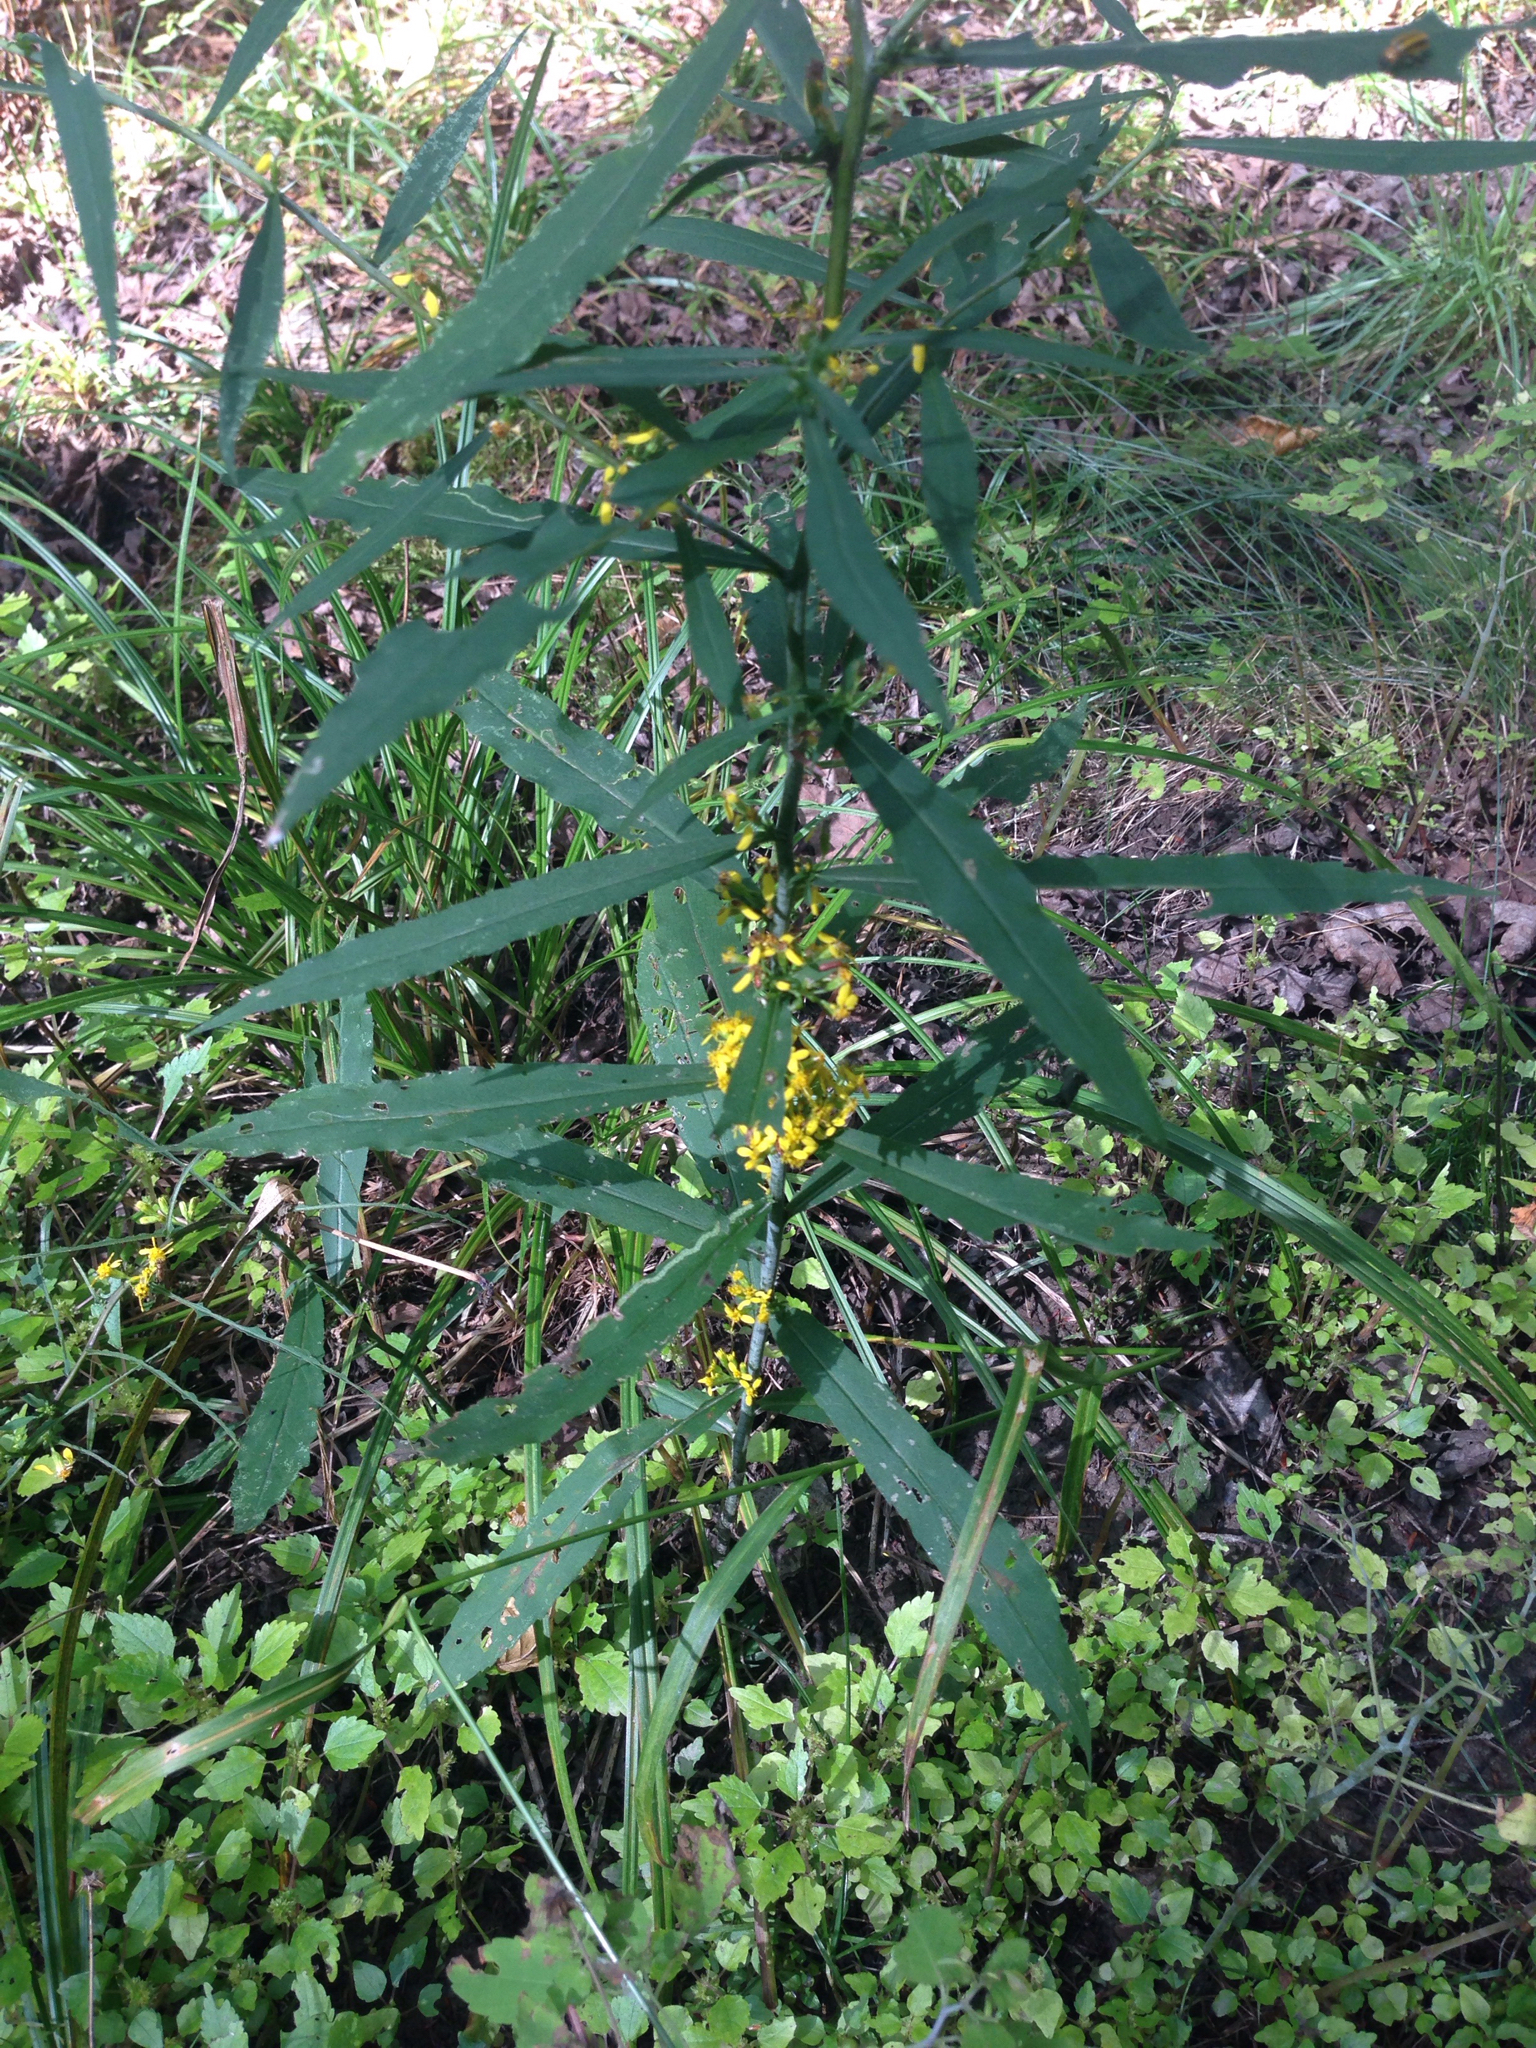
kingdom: Plantae
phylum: Tracheophyta
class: Magnoliopsida
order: Asterales
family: Asteraceae
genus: Solidago
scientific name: Solidago caesia
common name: Woodland goldenrod
